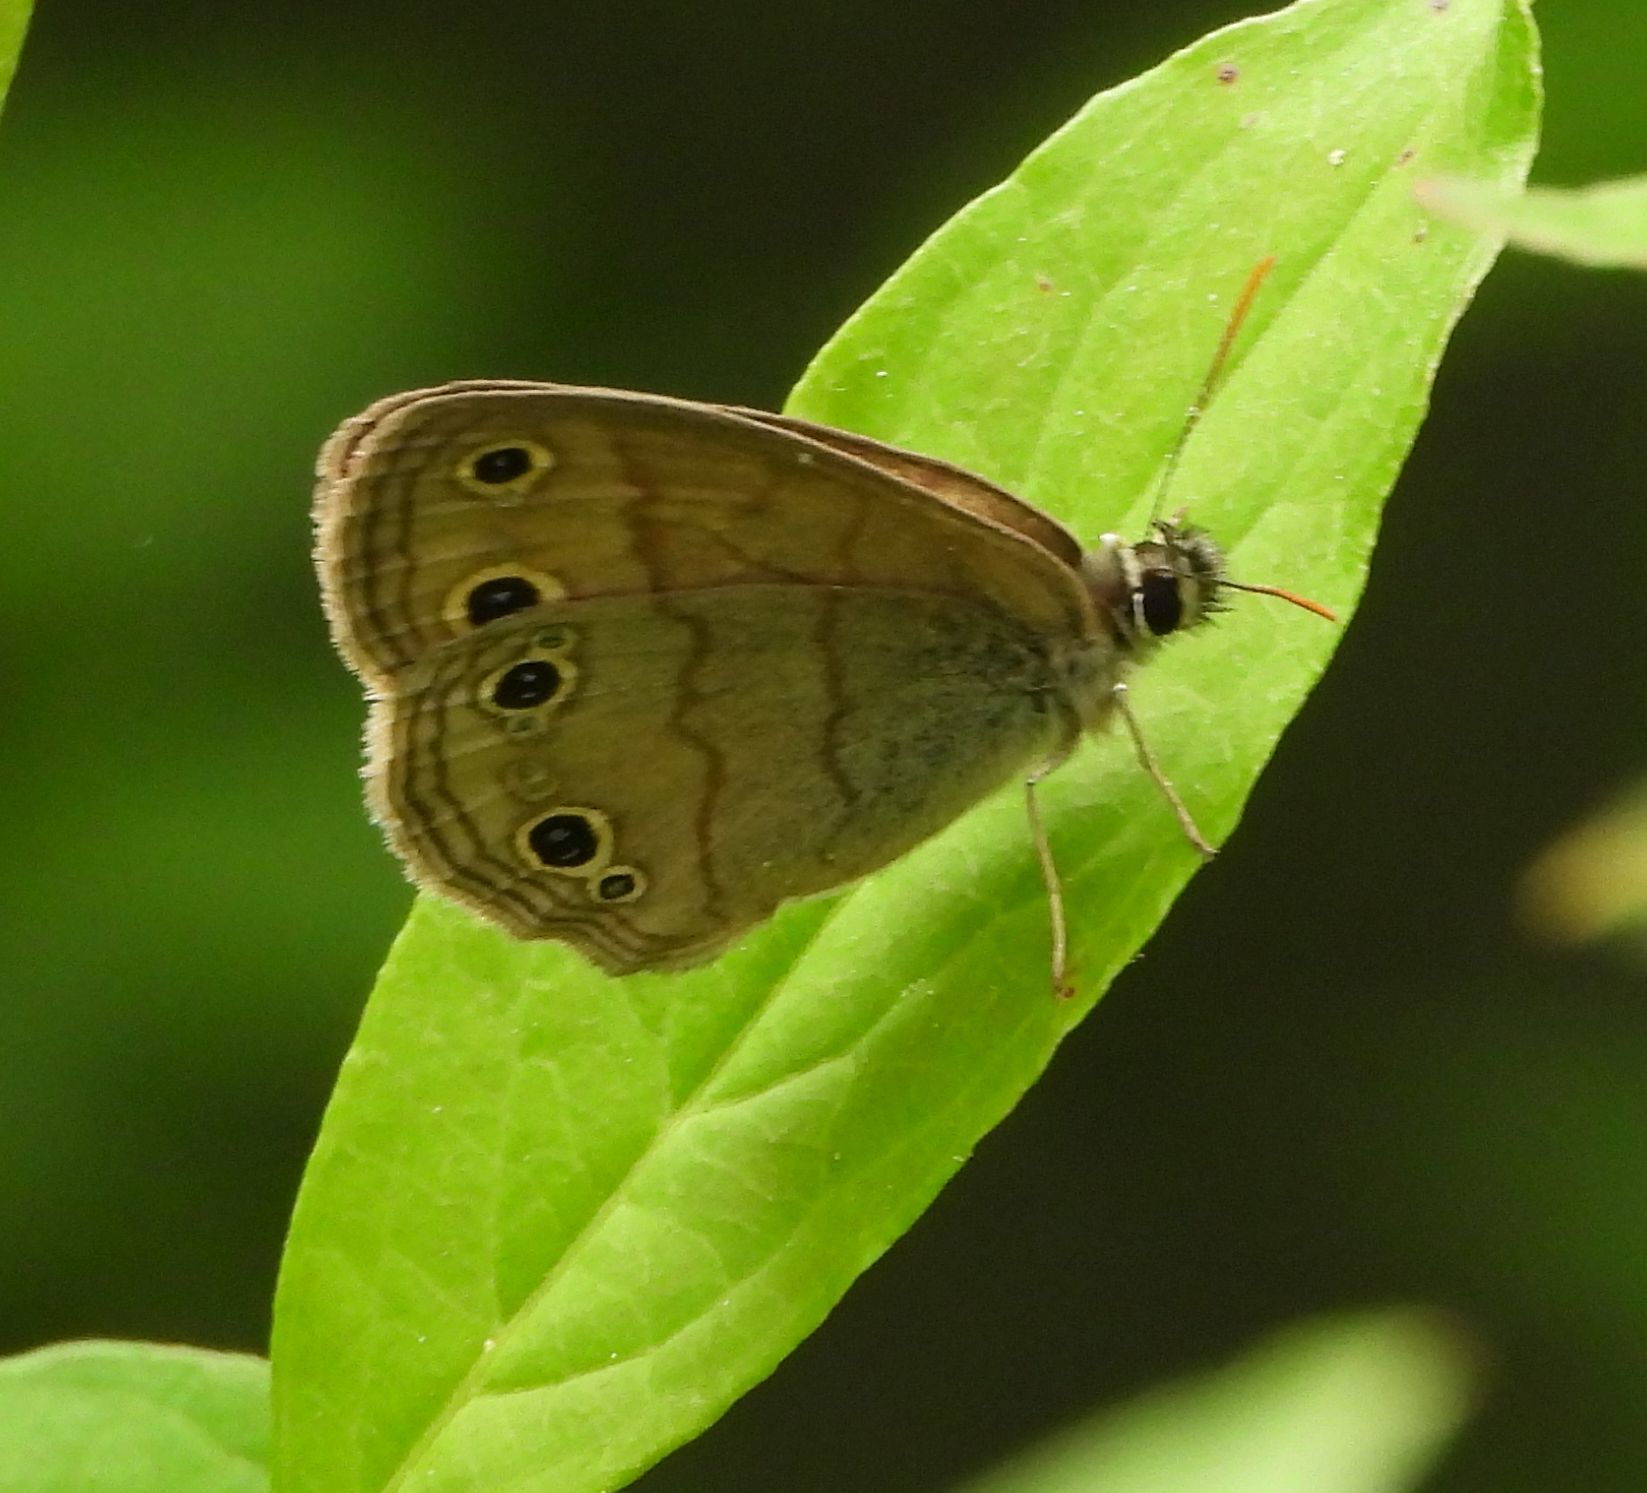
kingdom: Animalia
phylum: Arthropoda
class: Insecta
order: Lepidoptera
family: Nymphalidae
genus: Euptychia
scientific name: Euptychia cymela
